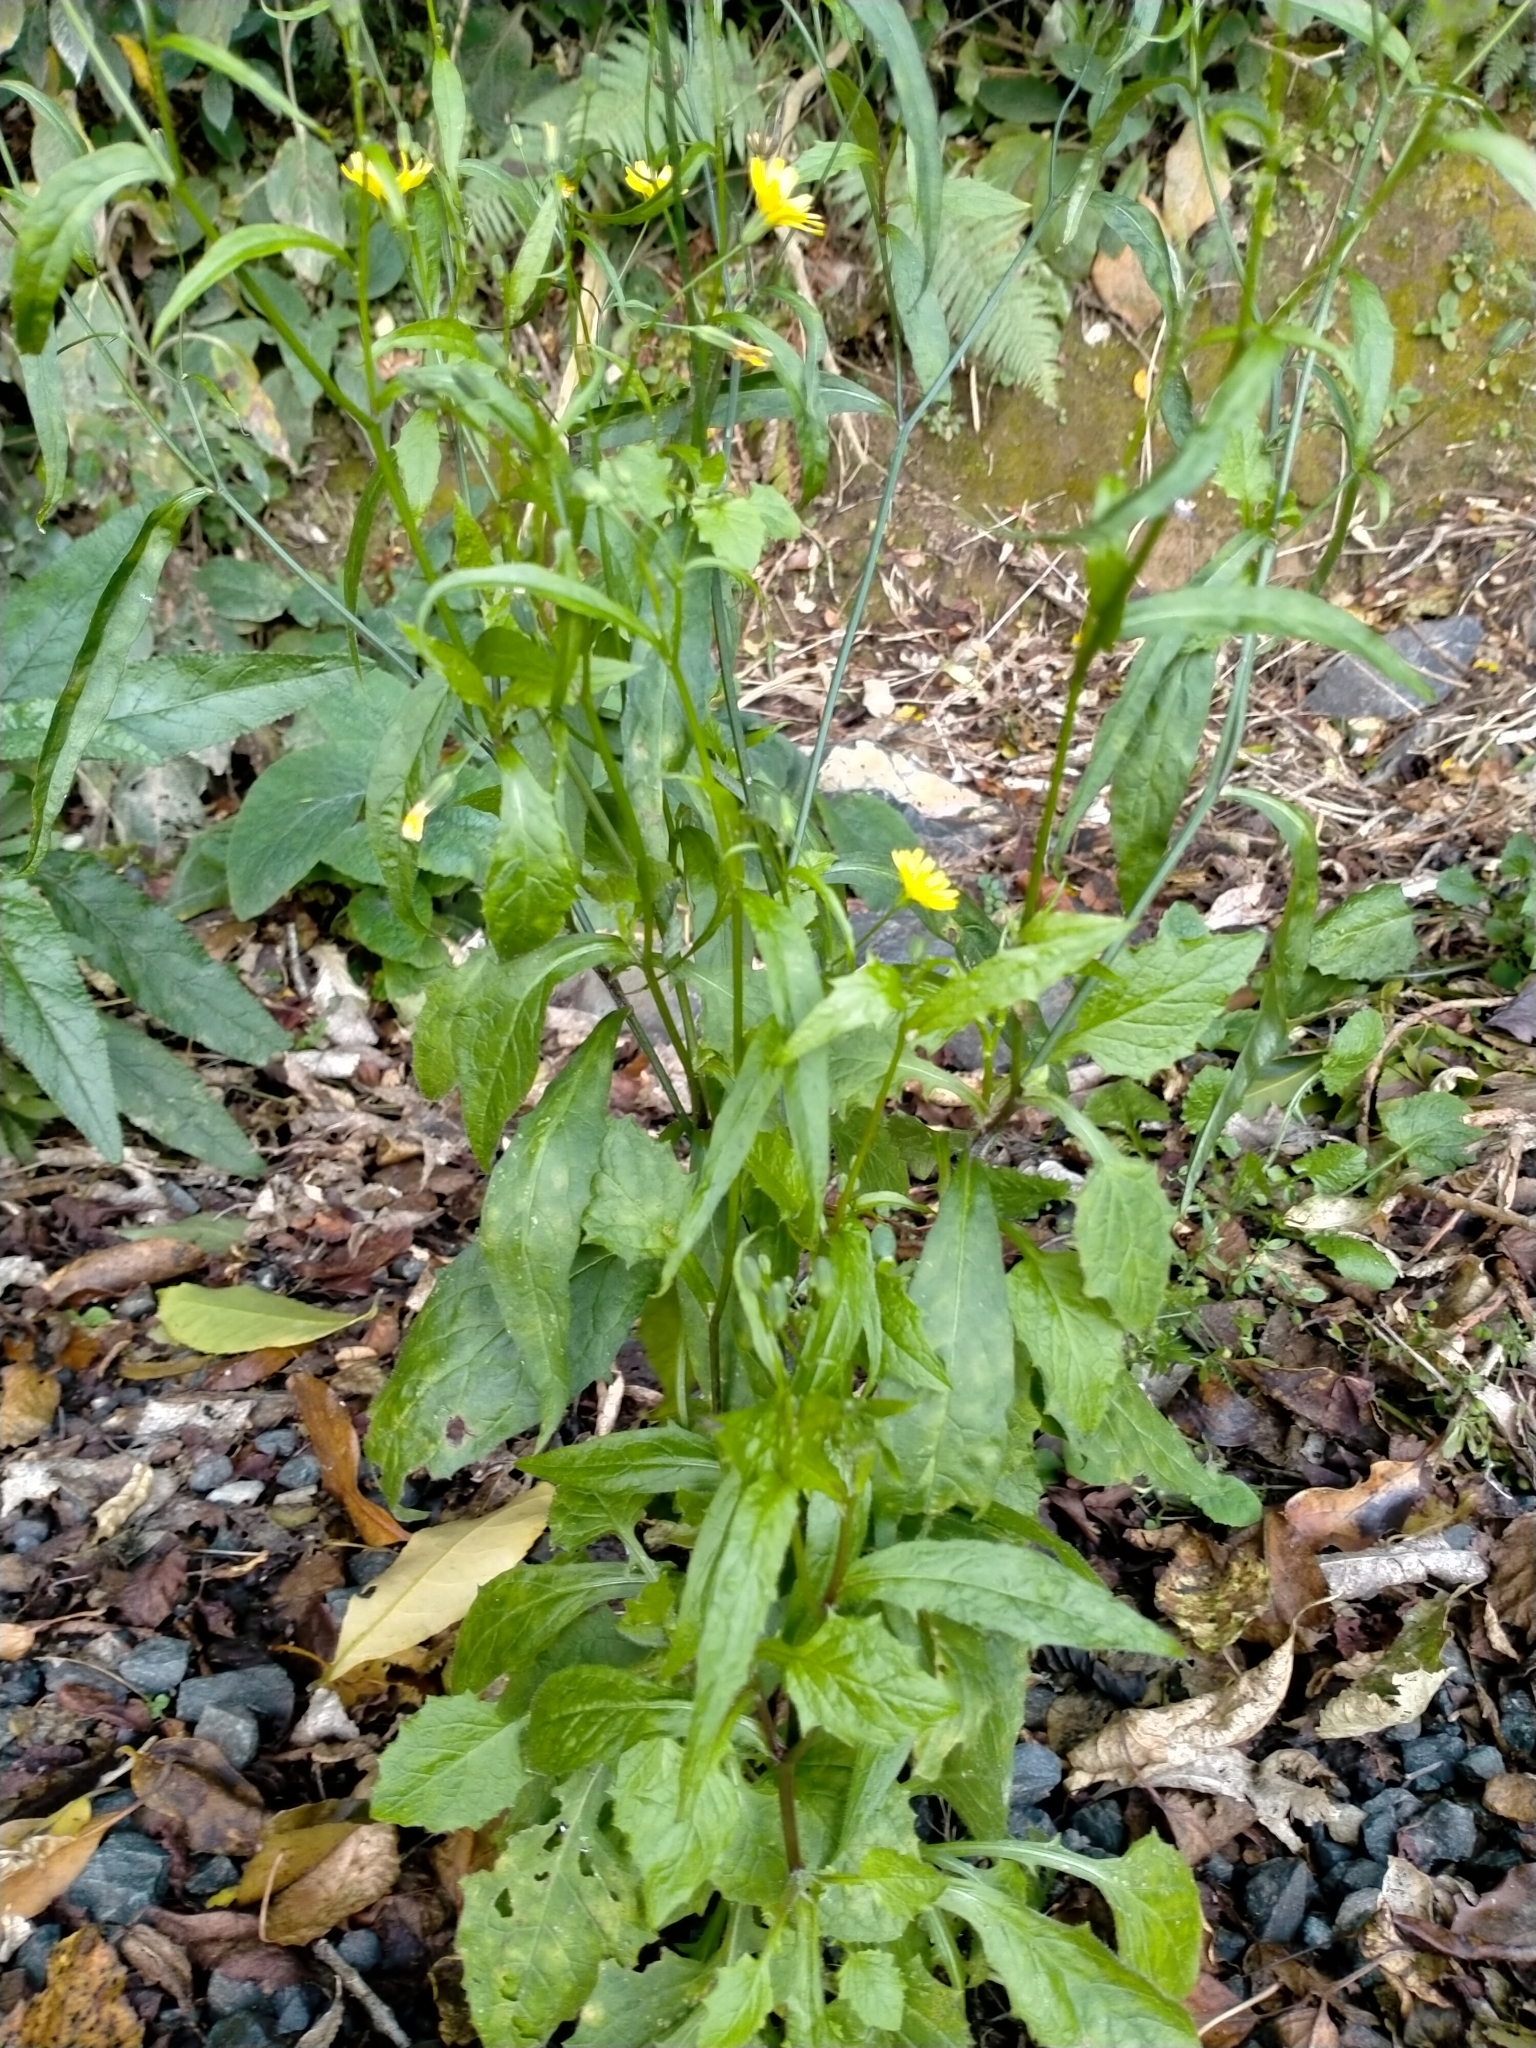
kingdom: Plantae
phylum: Tracheophyta
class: Magnoliopsida
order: Asterales
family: Asteraceae
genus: Lapsana
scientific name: Lapsana communis
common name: Nipplewort
